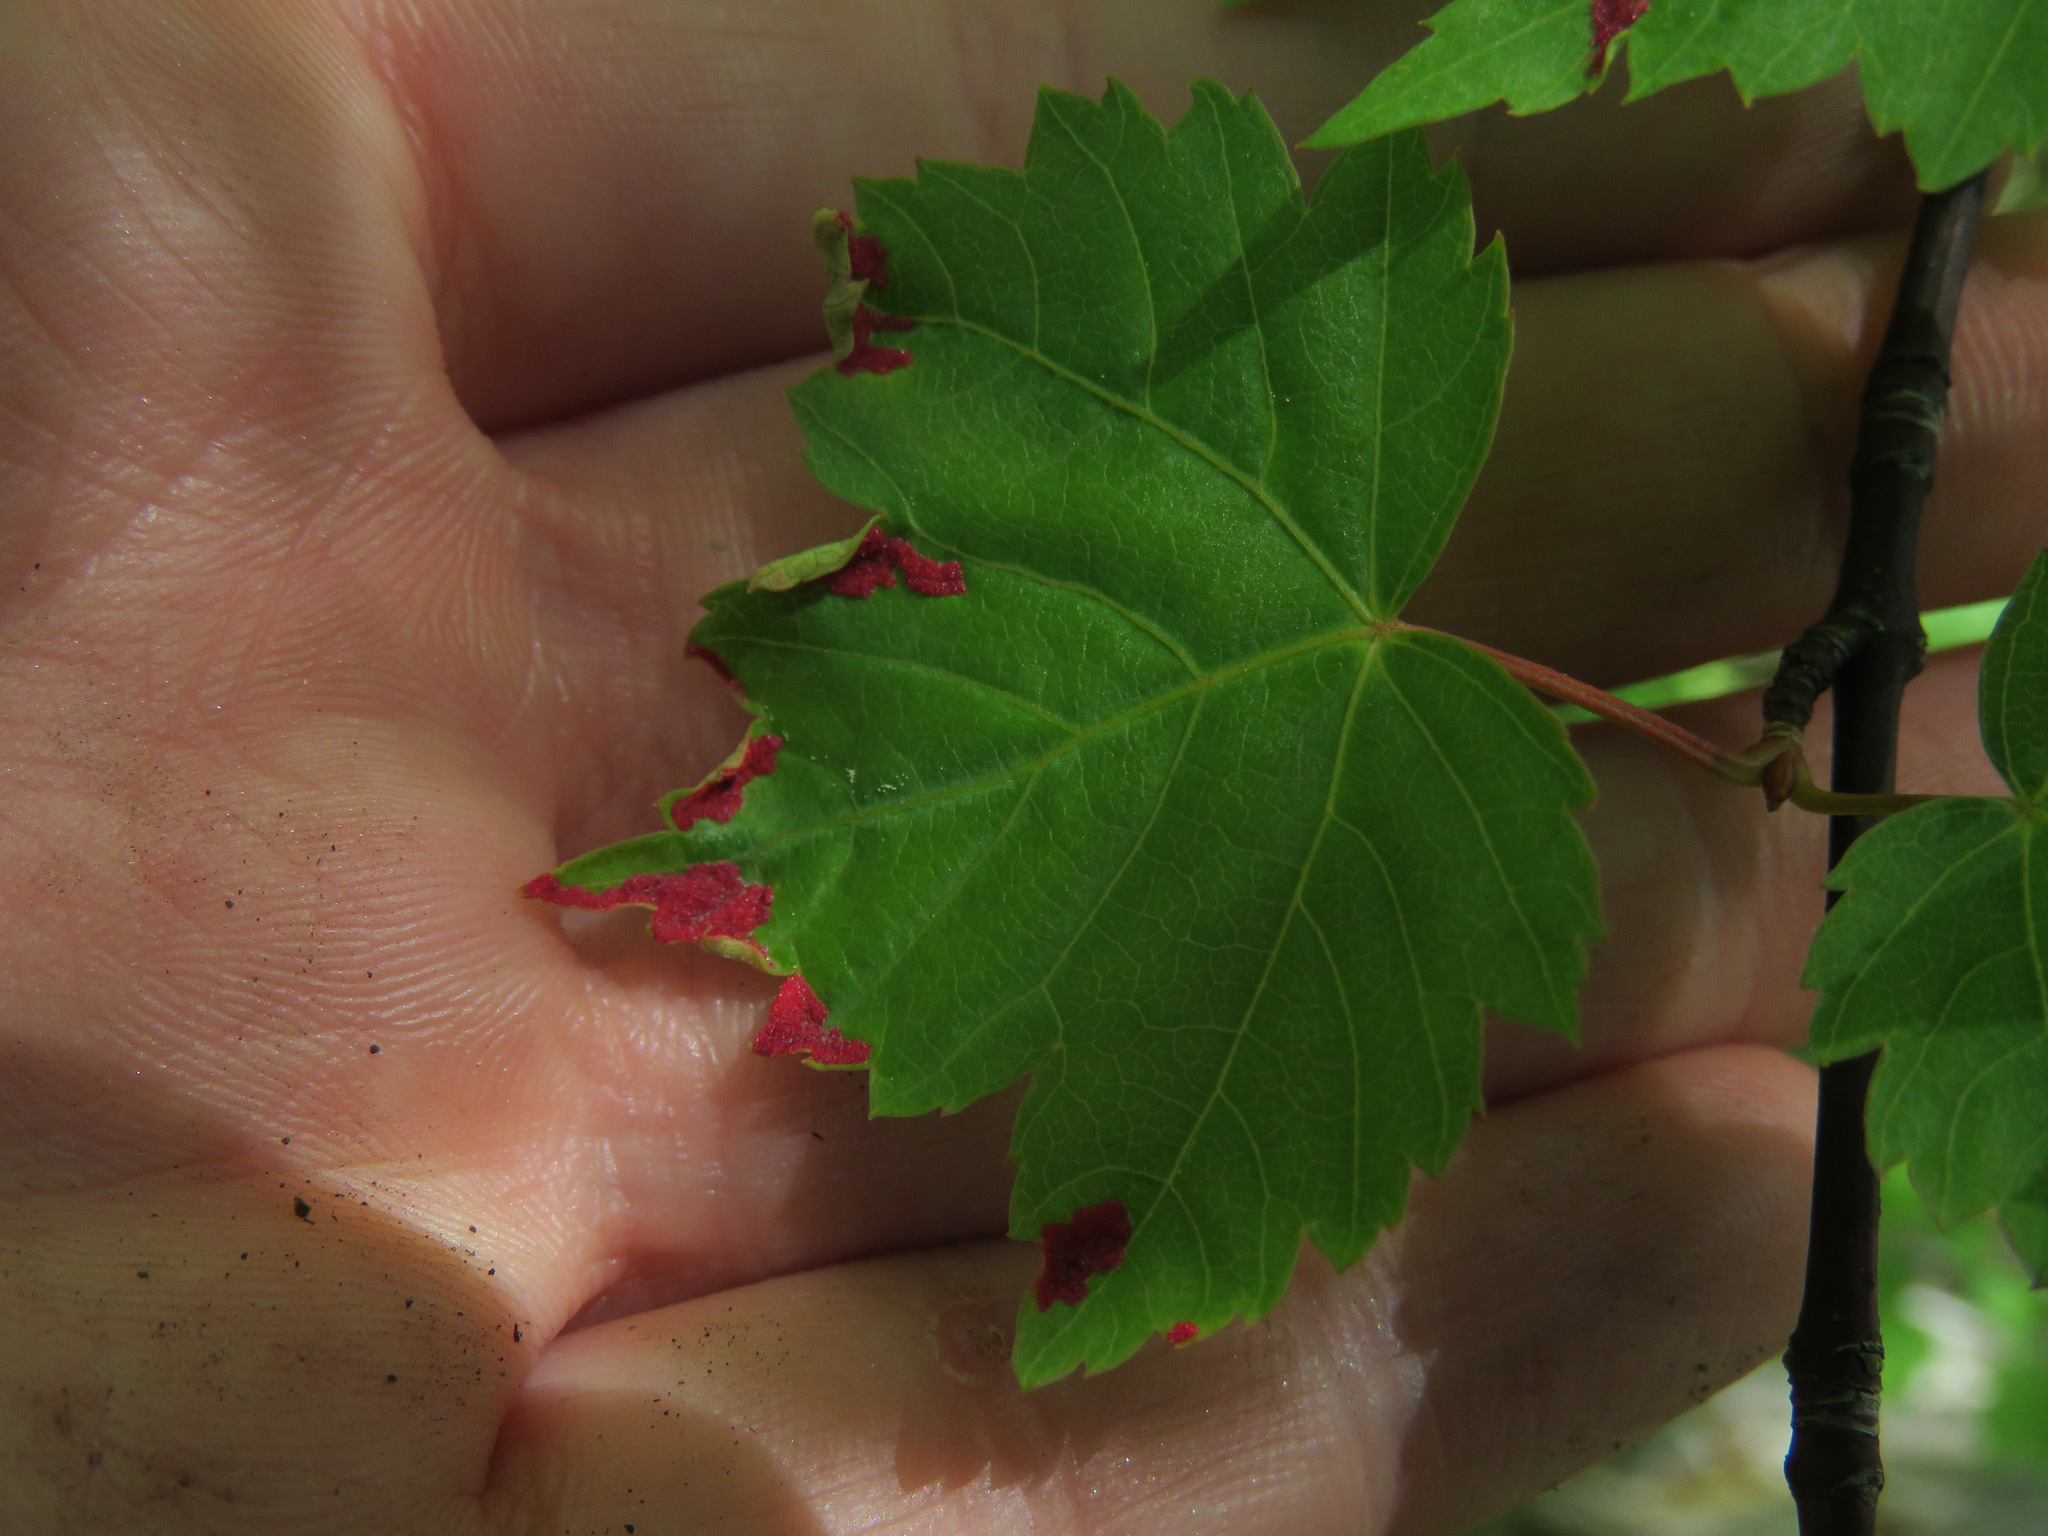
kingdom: Animalia
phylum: Arthropoda
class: Arachnida
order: Trombidiformes
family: Eriophyidae
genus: Aceria
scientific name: Aceria
